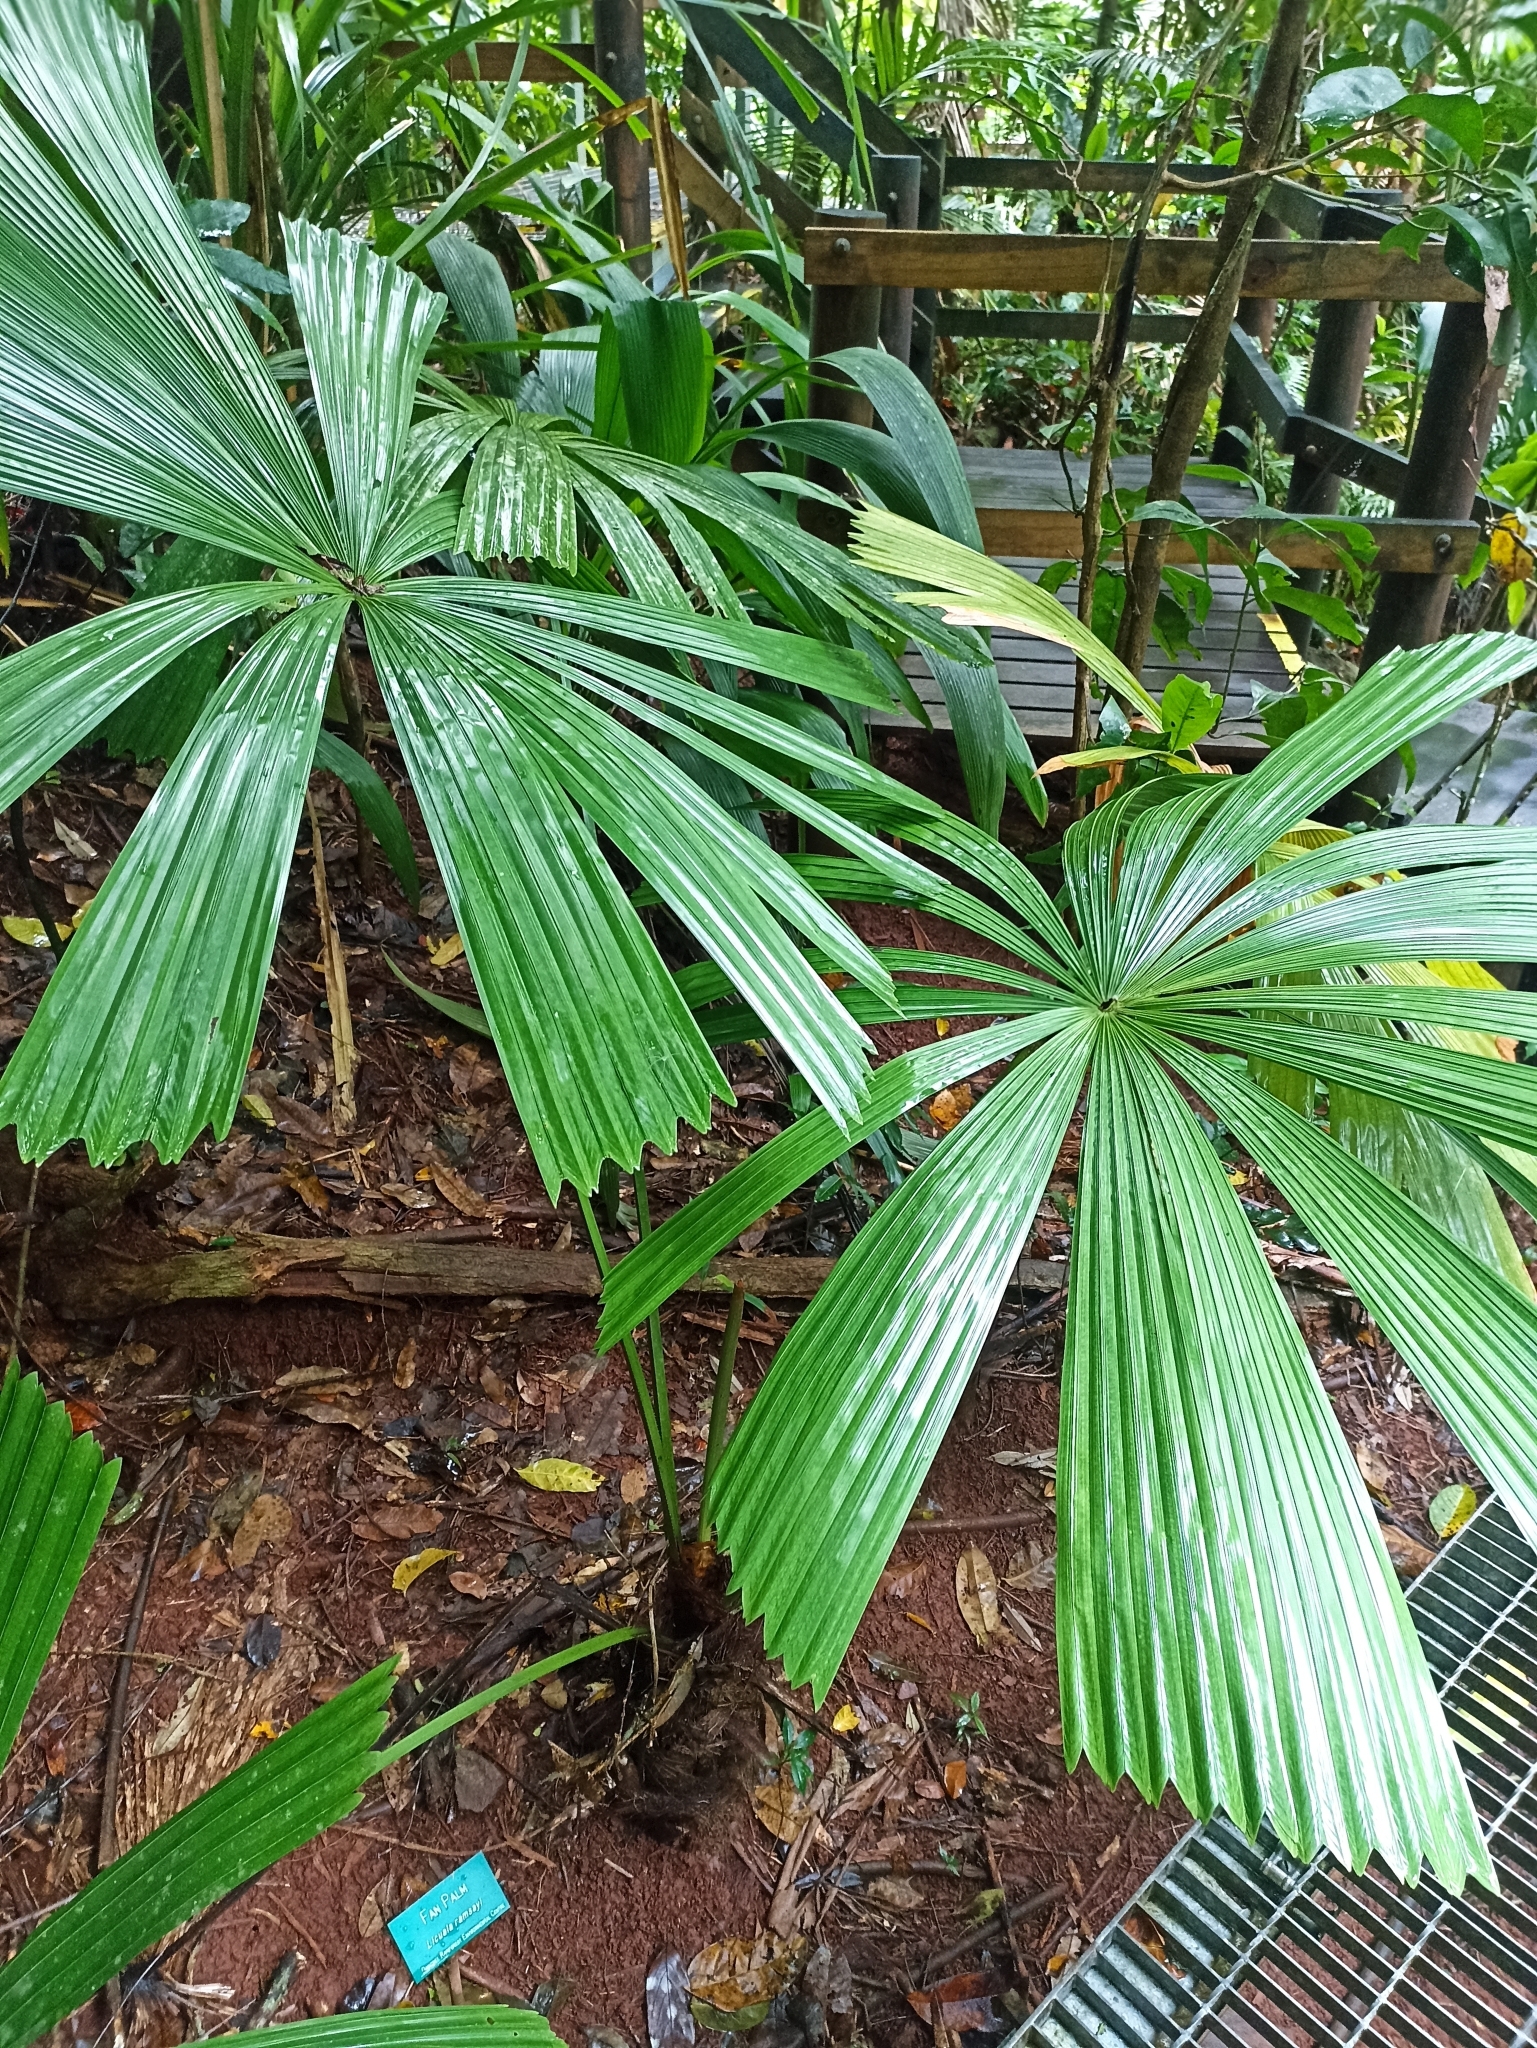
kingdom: Plantae
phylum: Tracheophyta
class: Liliopsida
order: Arecales
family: Arecaceae
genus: Licuala
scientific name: Licuala ramsayi
